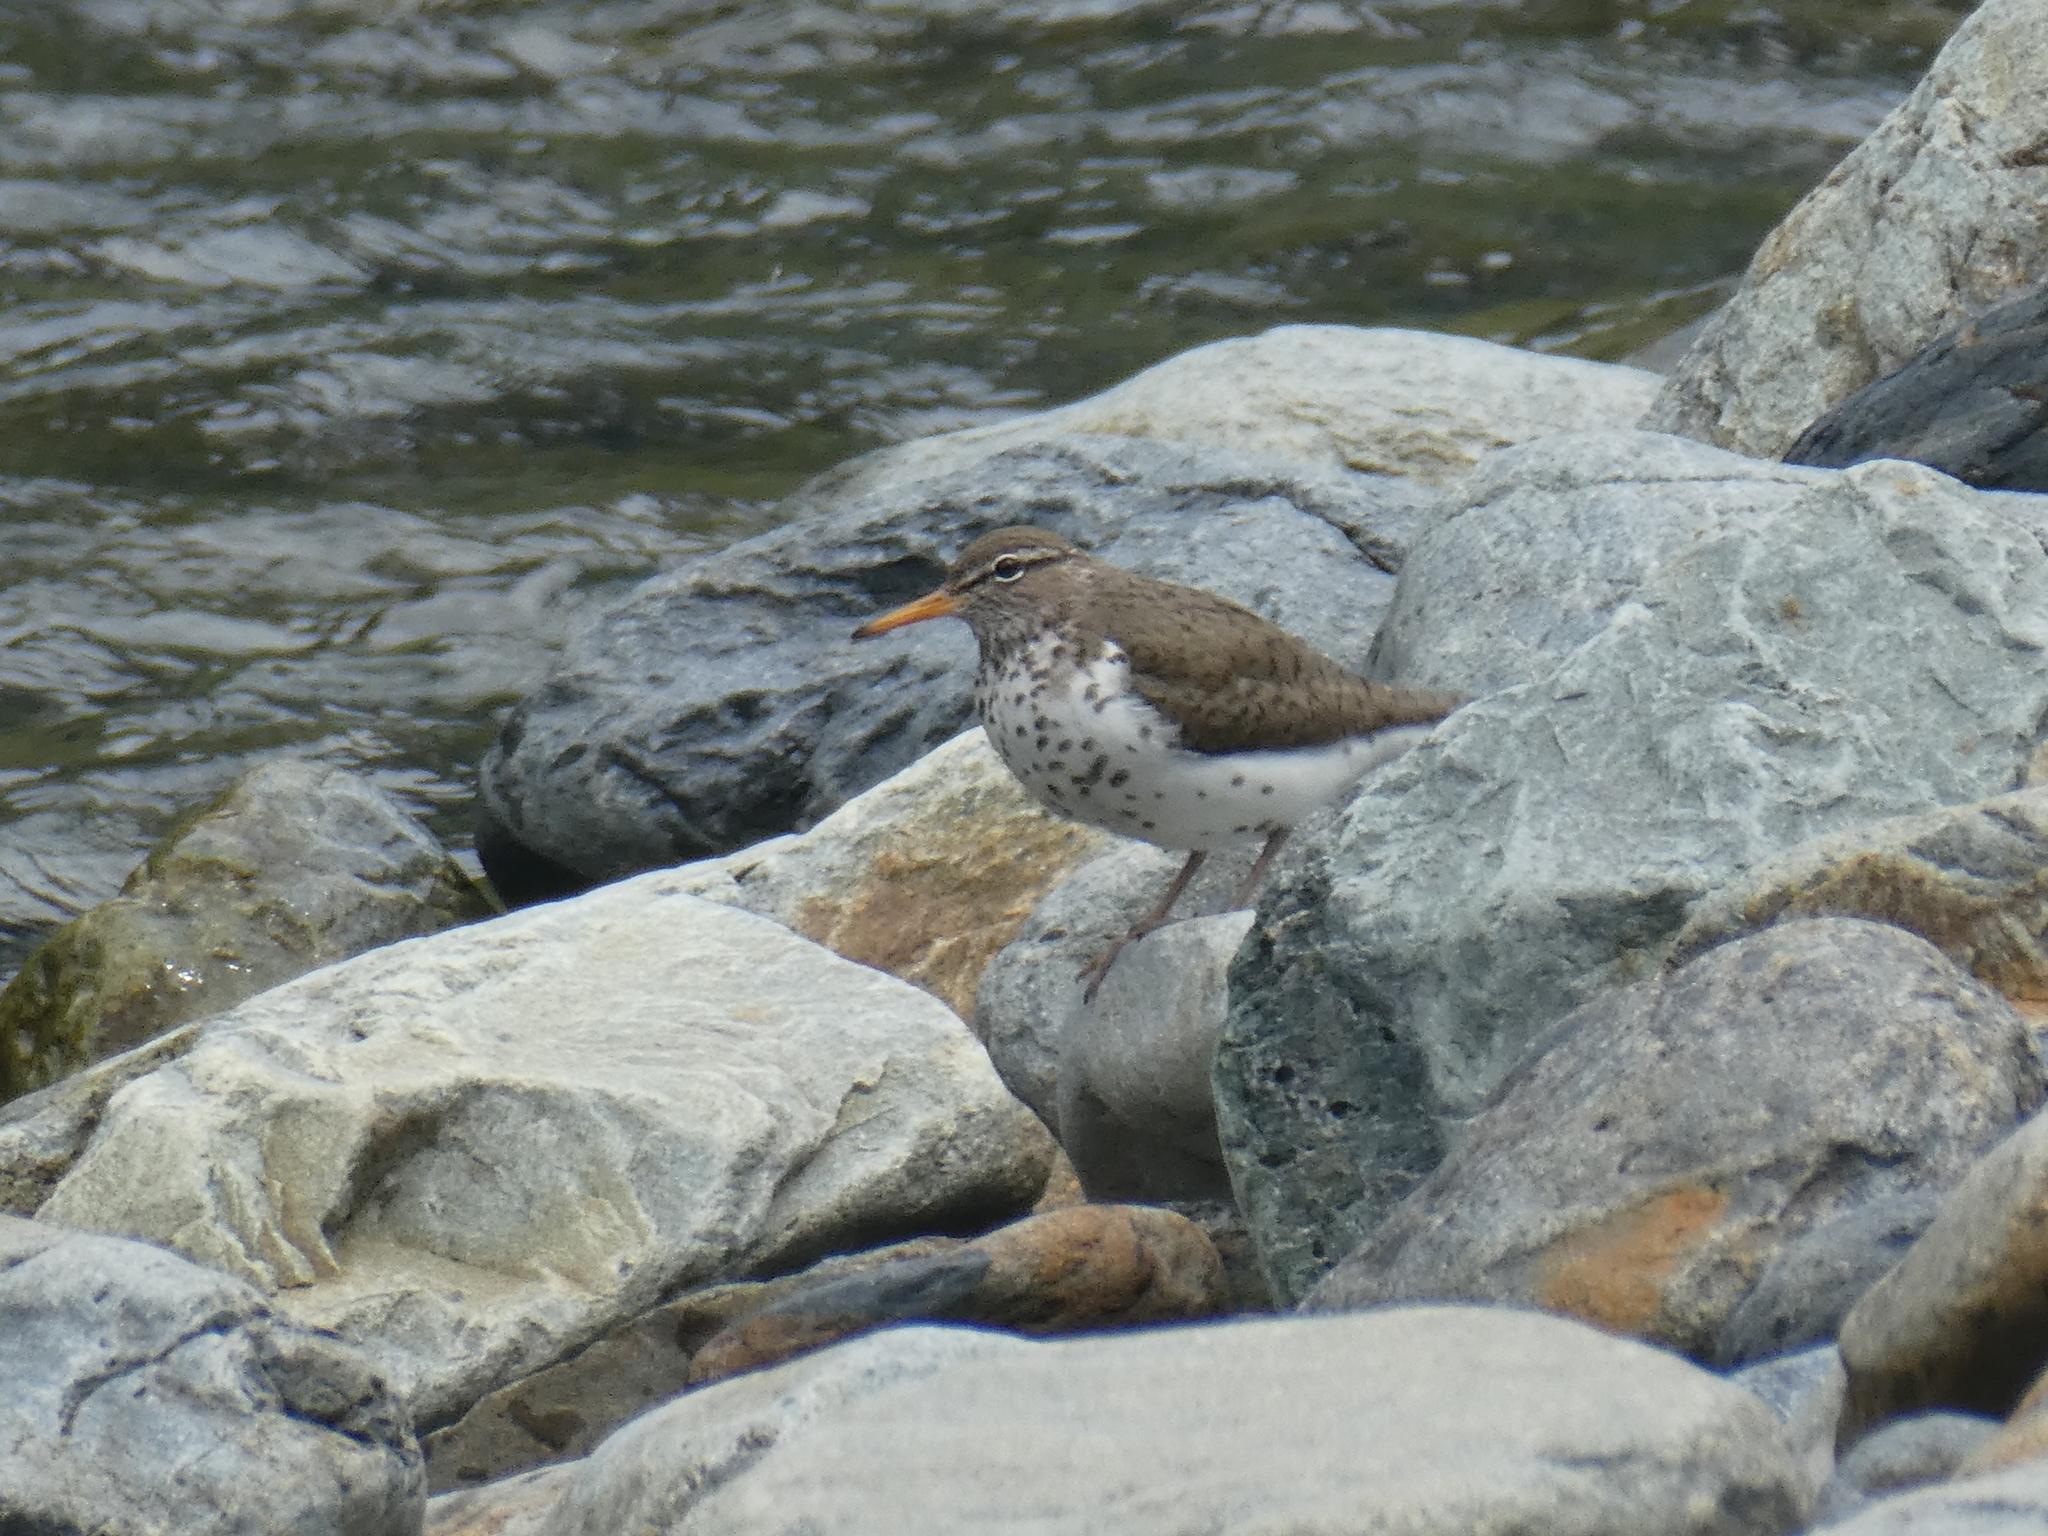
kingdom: Animalia
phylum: Chordata
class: Aves
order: Charadriiformes
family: Scolopacidae
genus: Actitis
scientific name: Actitis macularius
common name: Spotted sandpiper
